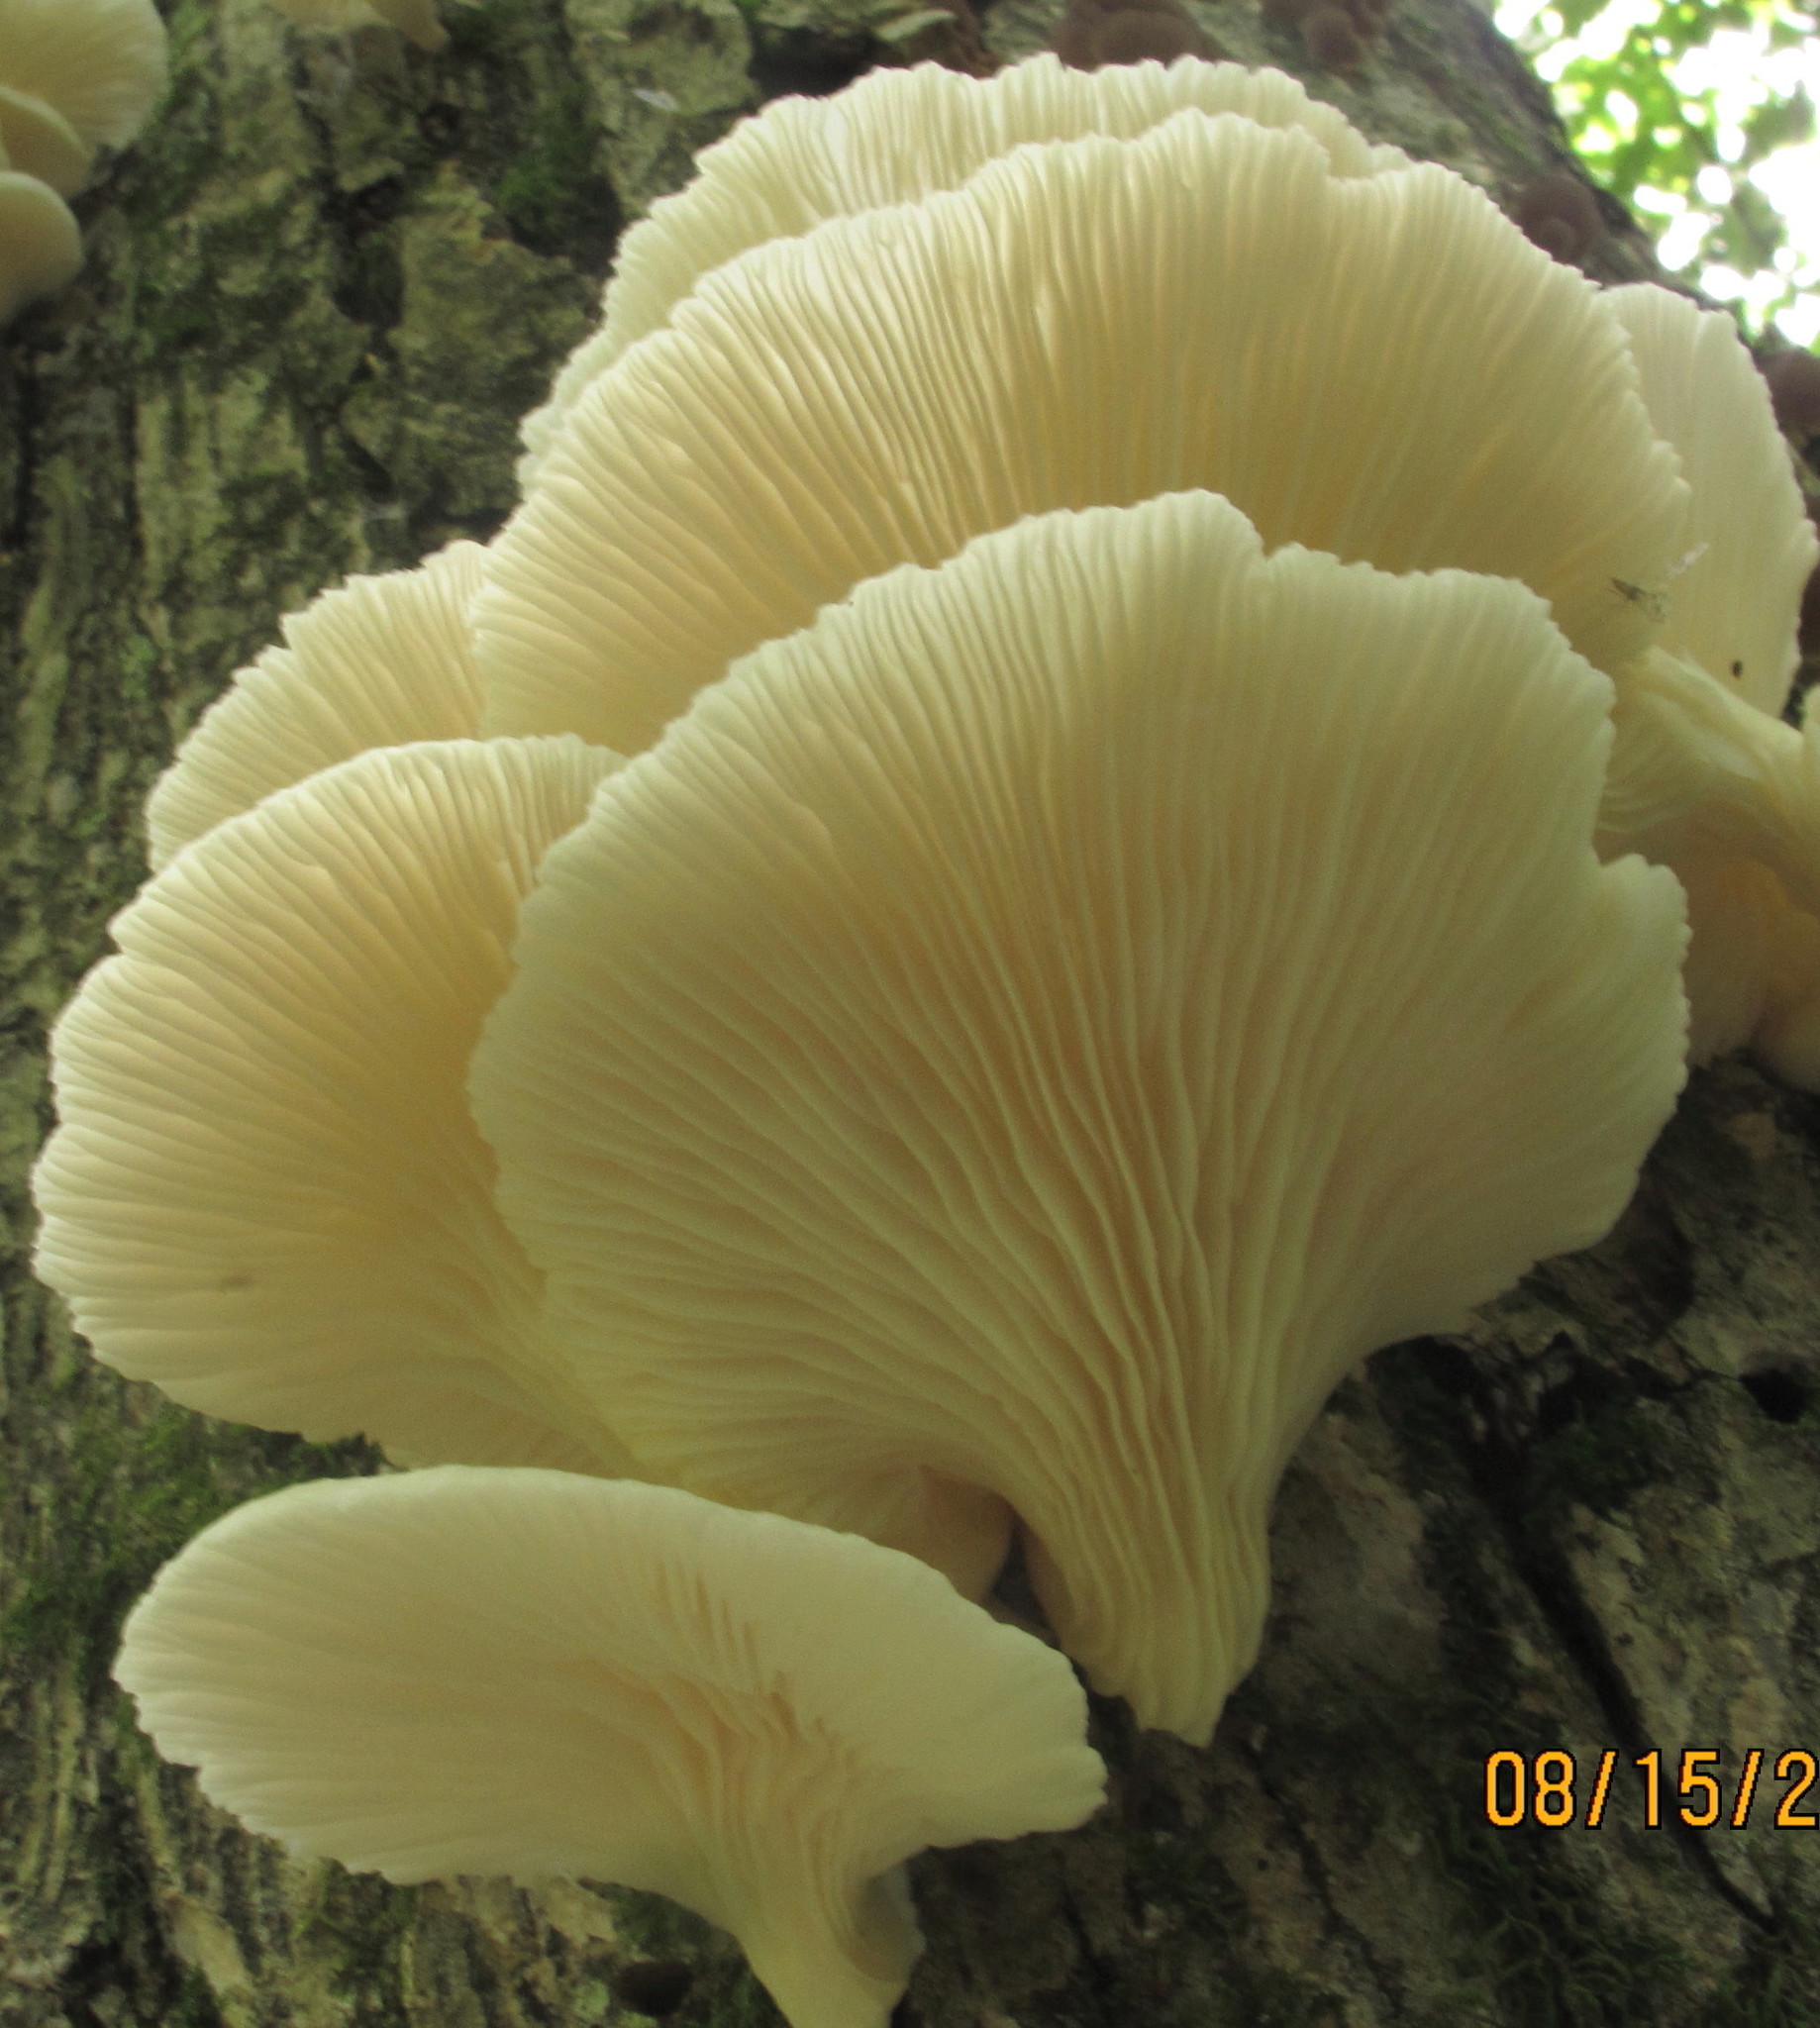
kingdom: Fungi
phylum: Basidiomycota
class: Agaricomycetes
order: Agaricales
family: Pleurotaceae
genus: Pleurotus
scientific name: Pleurotus pulmonarius
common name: Pale oyster
